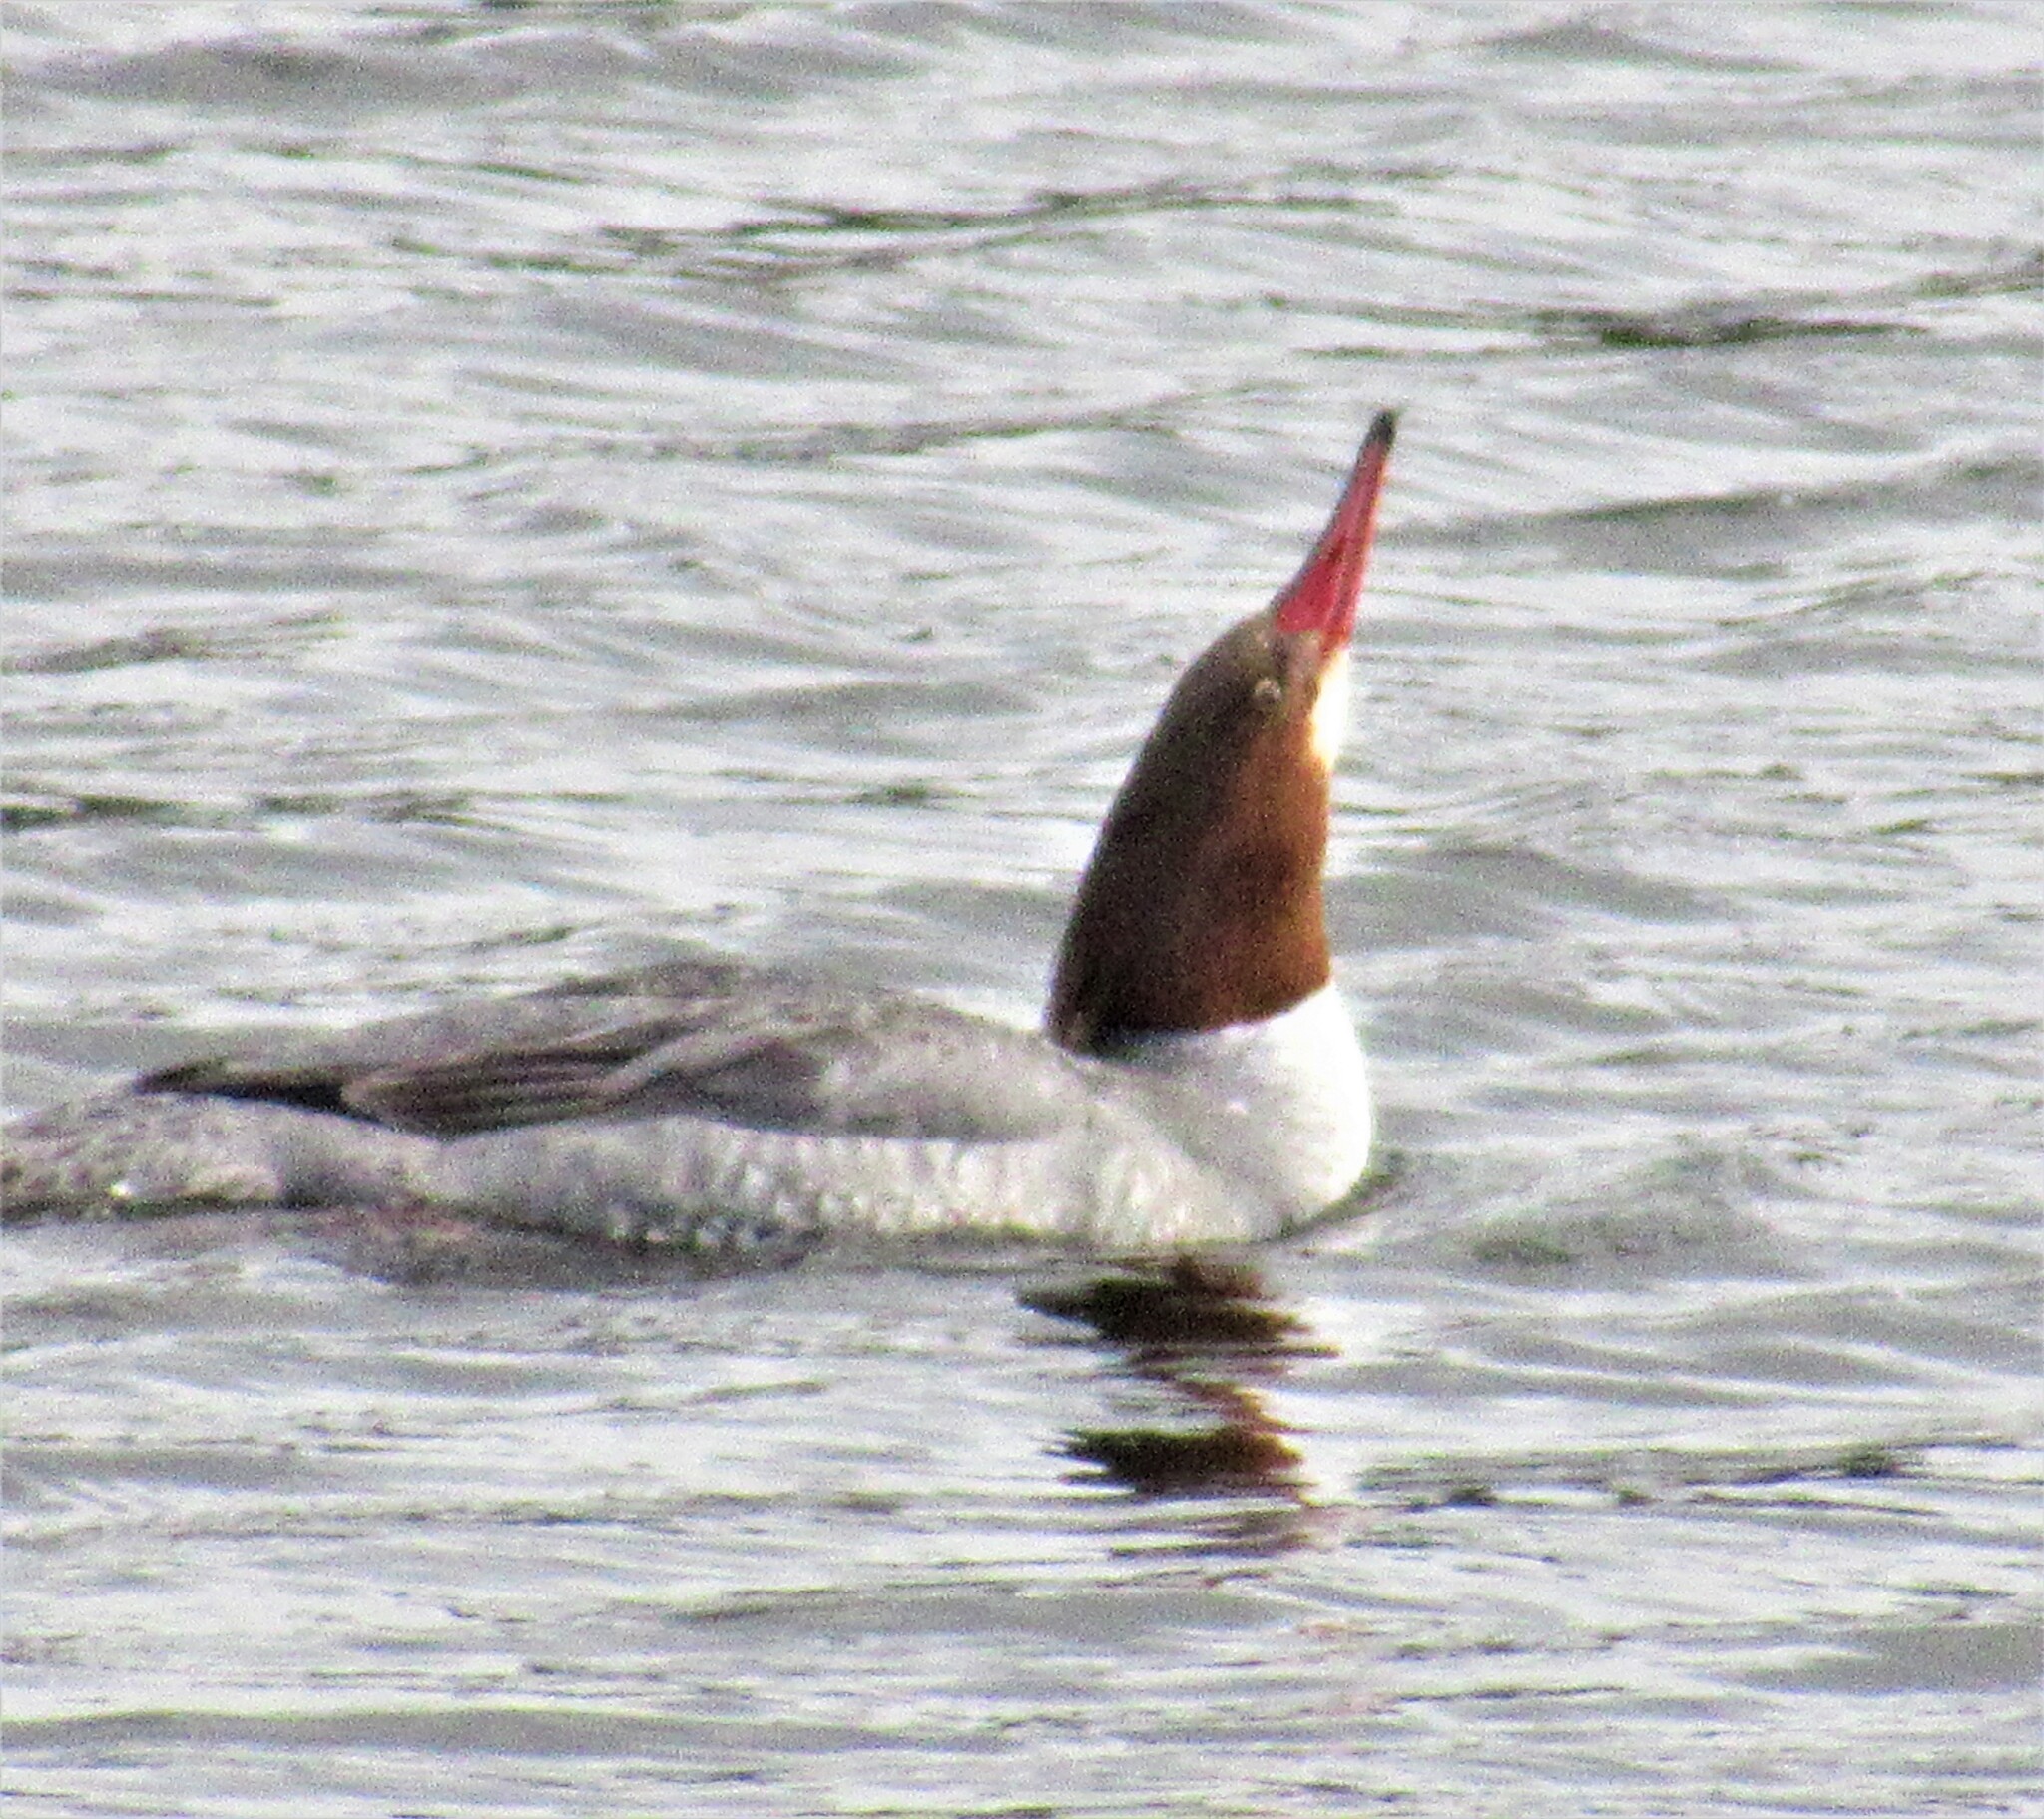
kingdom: Animalia
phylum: Chordata
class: Aves
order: Anseriformes
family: Anatidae
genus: Mergus
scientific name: Mergus merganser
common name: Common merganser
